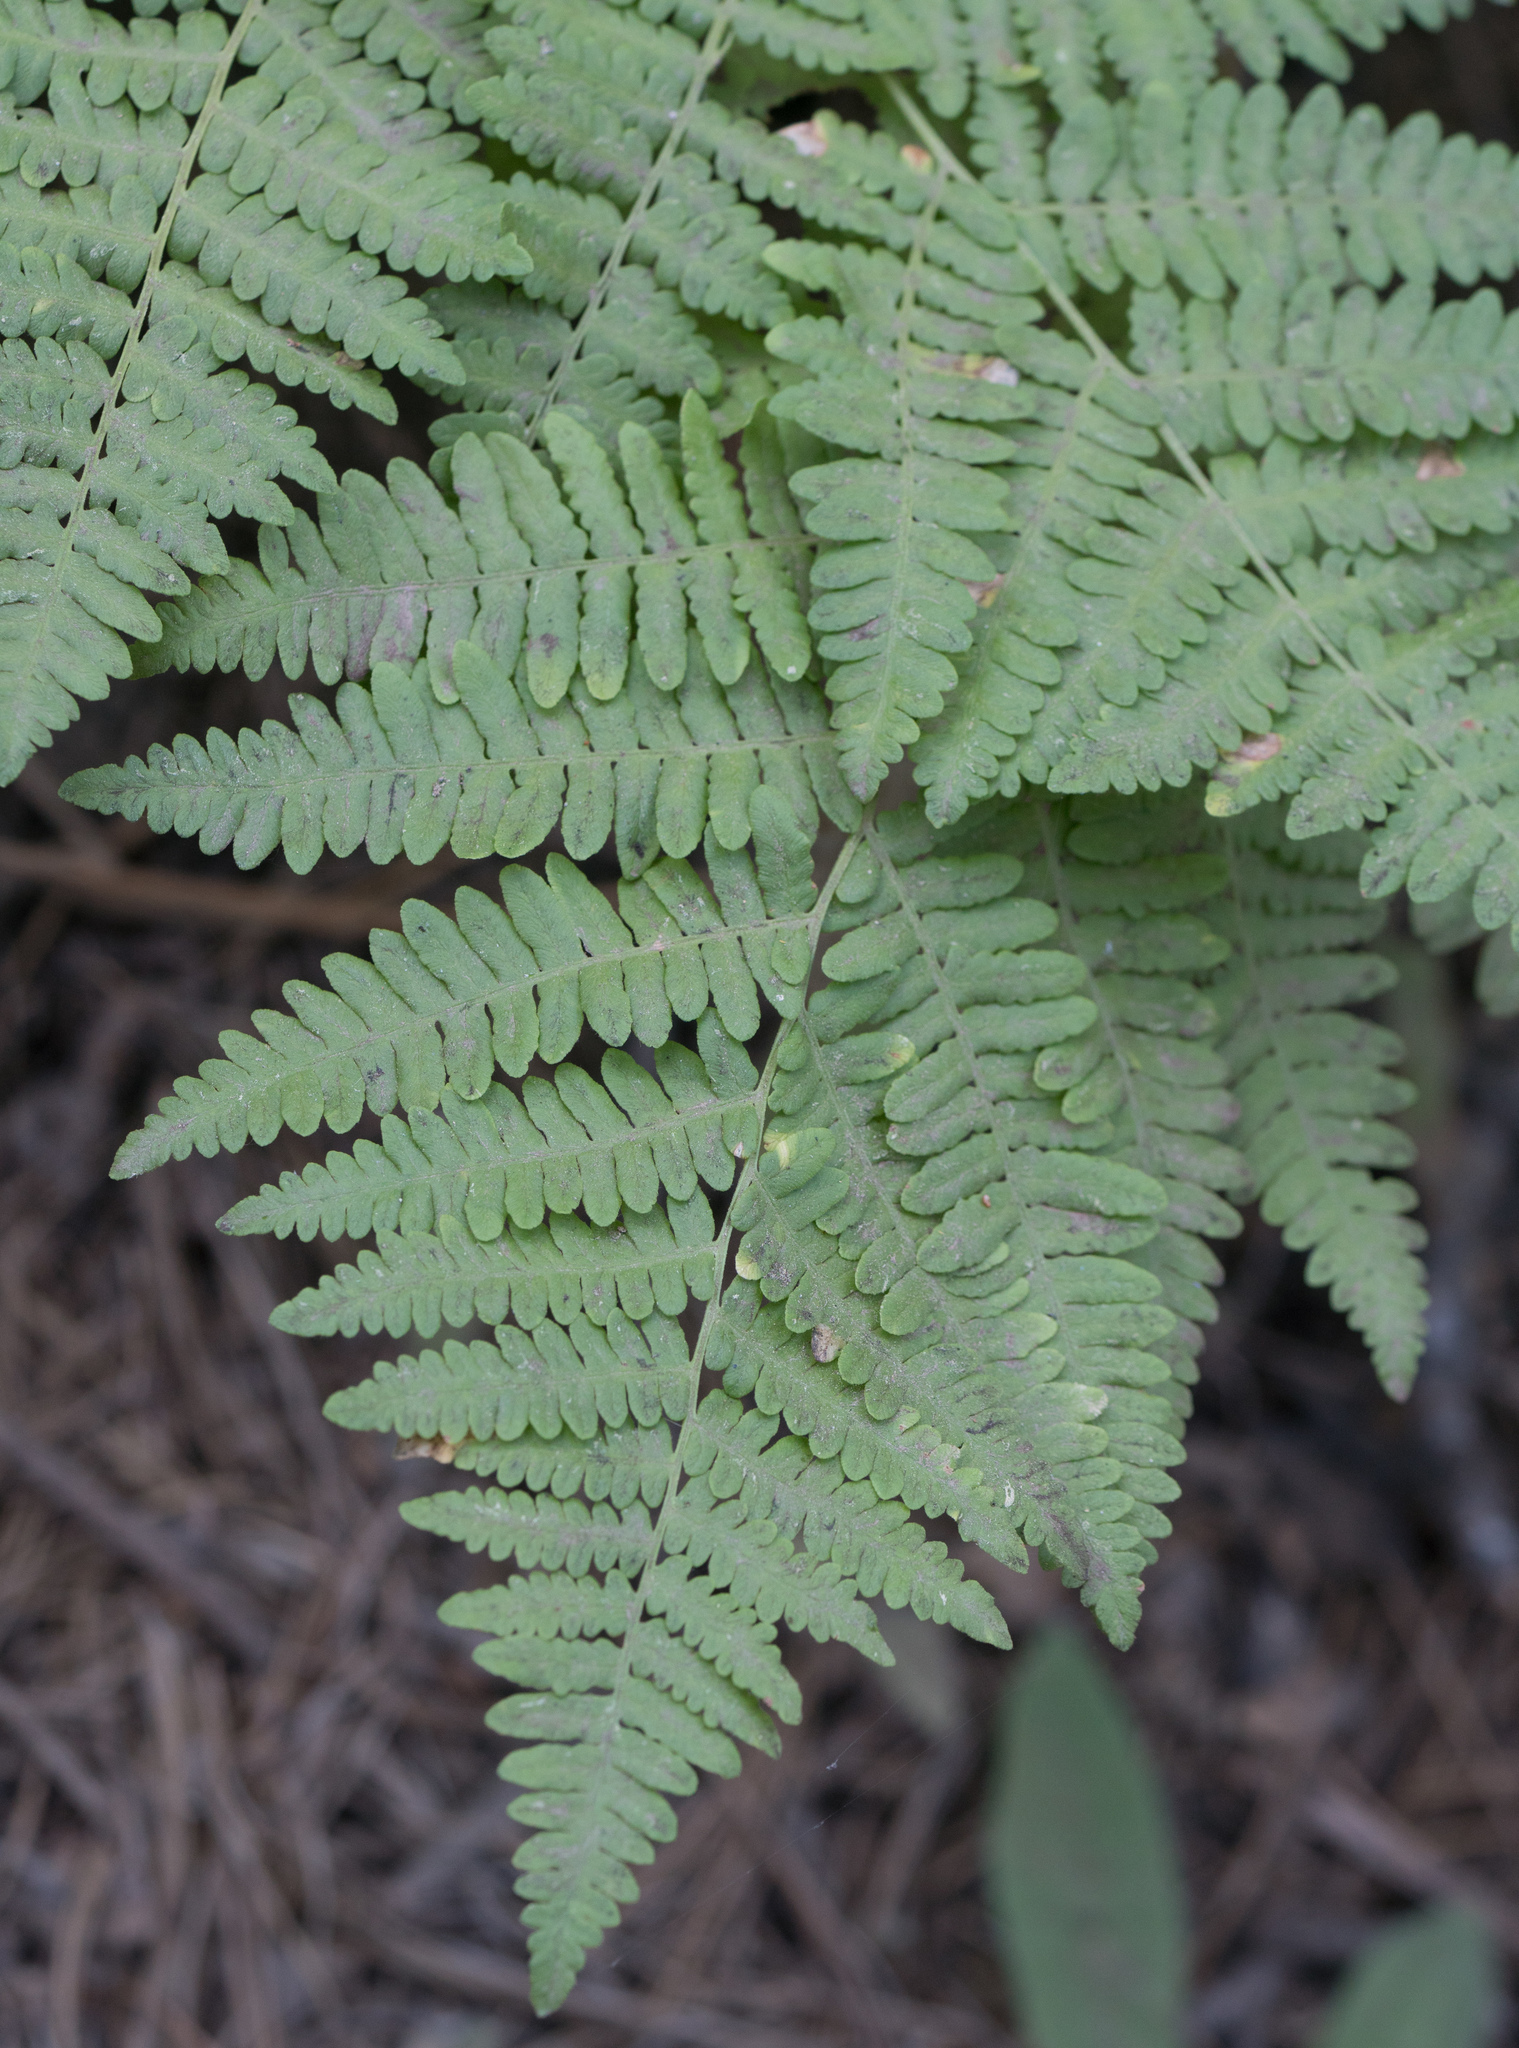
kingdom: Plantae
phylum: Tracheophyta
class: Polypodiopsida
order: Polypodiales
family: Dennstaedtiaceae
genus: Pteridium
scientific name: Pteridium aquilinum
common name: Bracken
